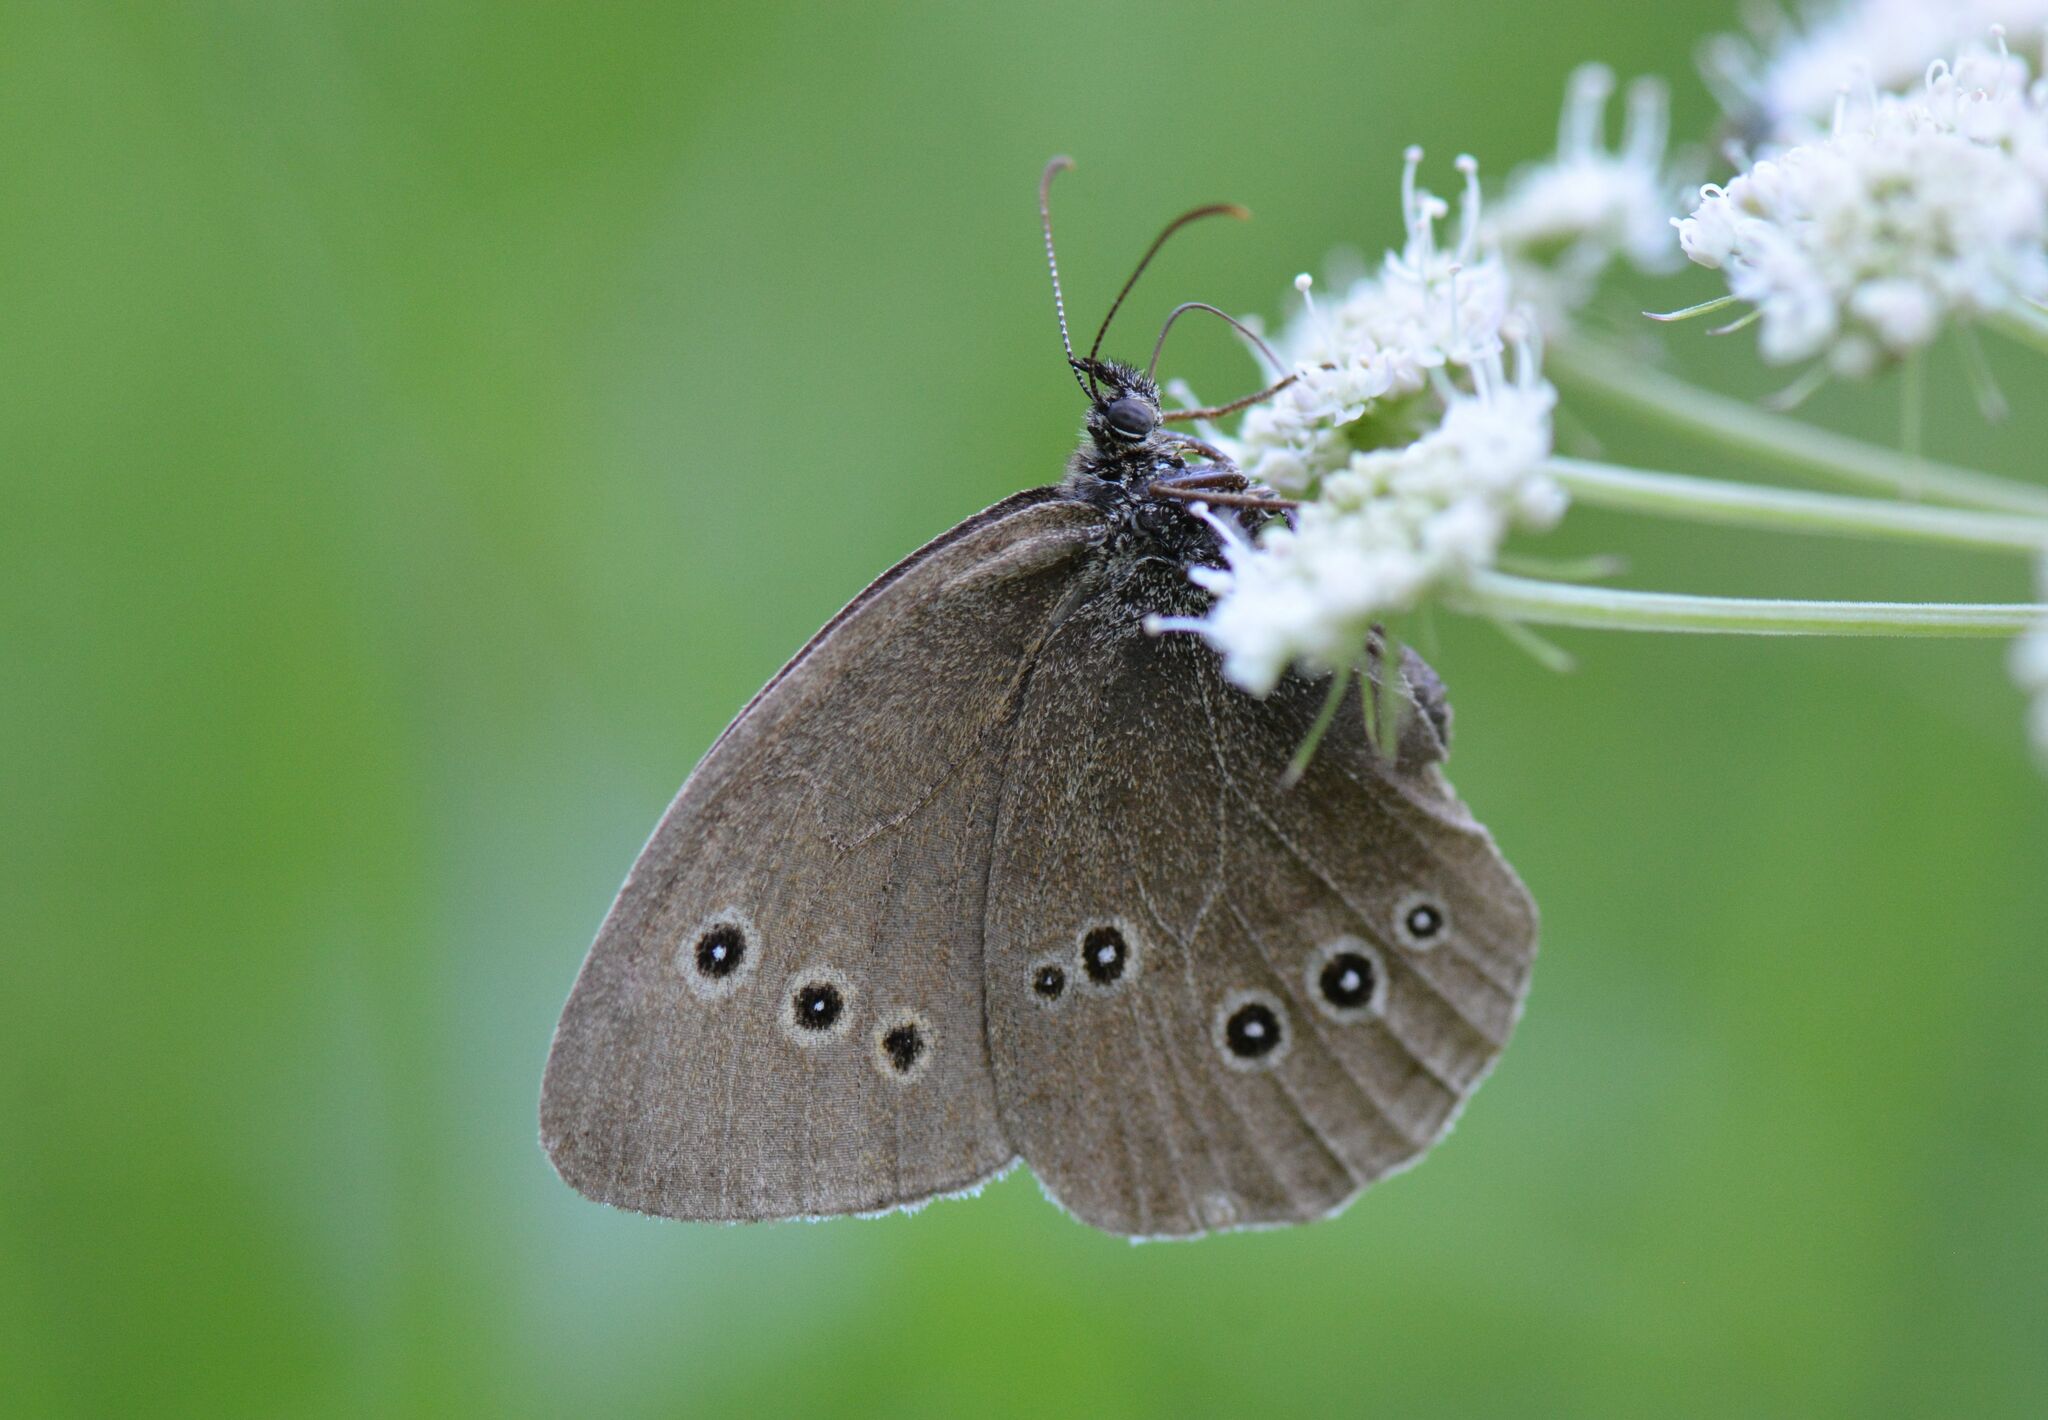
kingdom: Animalia
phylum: Arthropoda
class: Insecta
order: Lepidoptera
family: Nymphalidae
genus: Aphantopus
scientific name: Aphantopus hyperantus
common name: Ringlet
